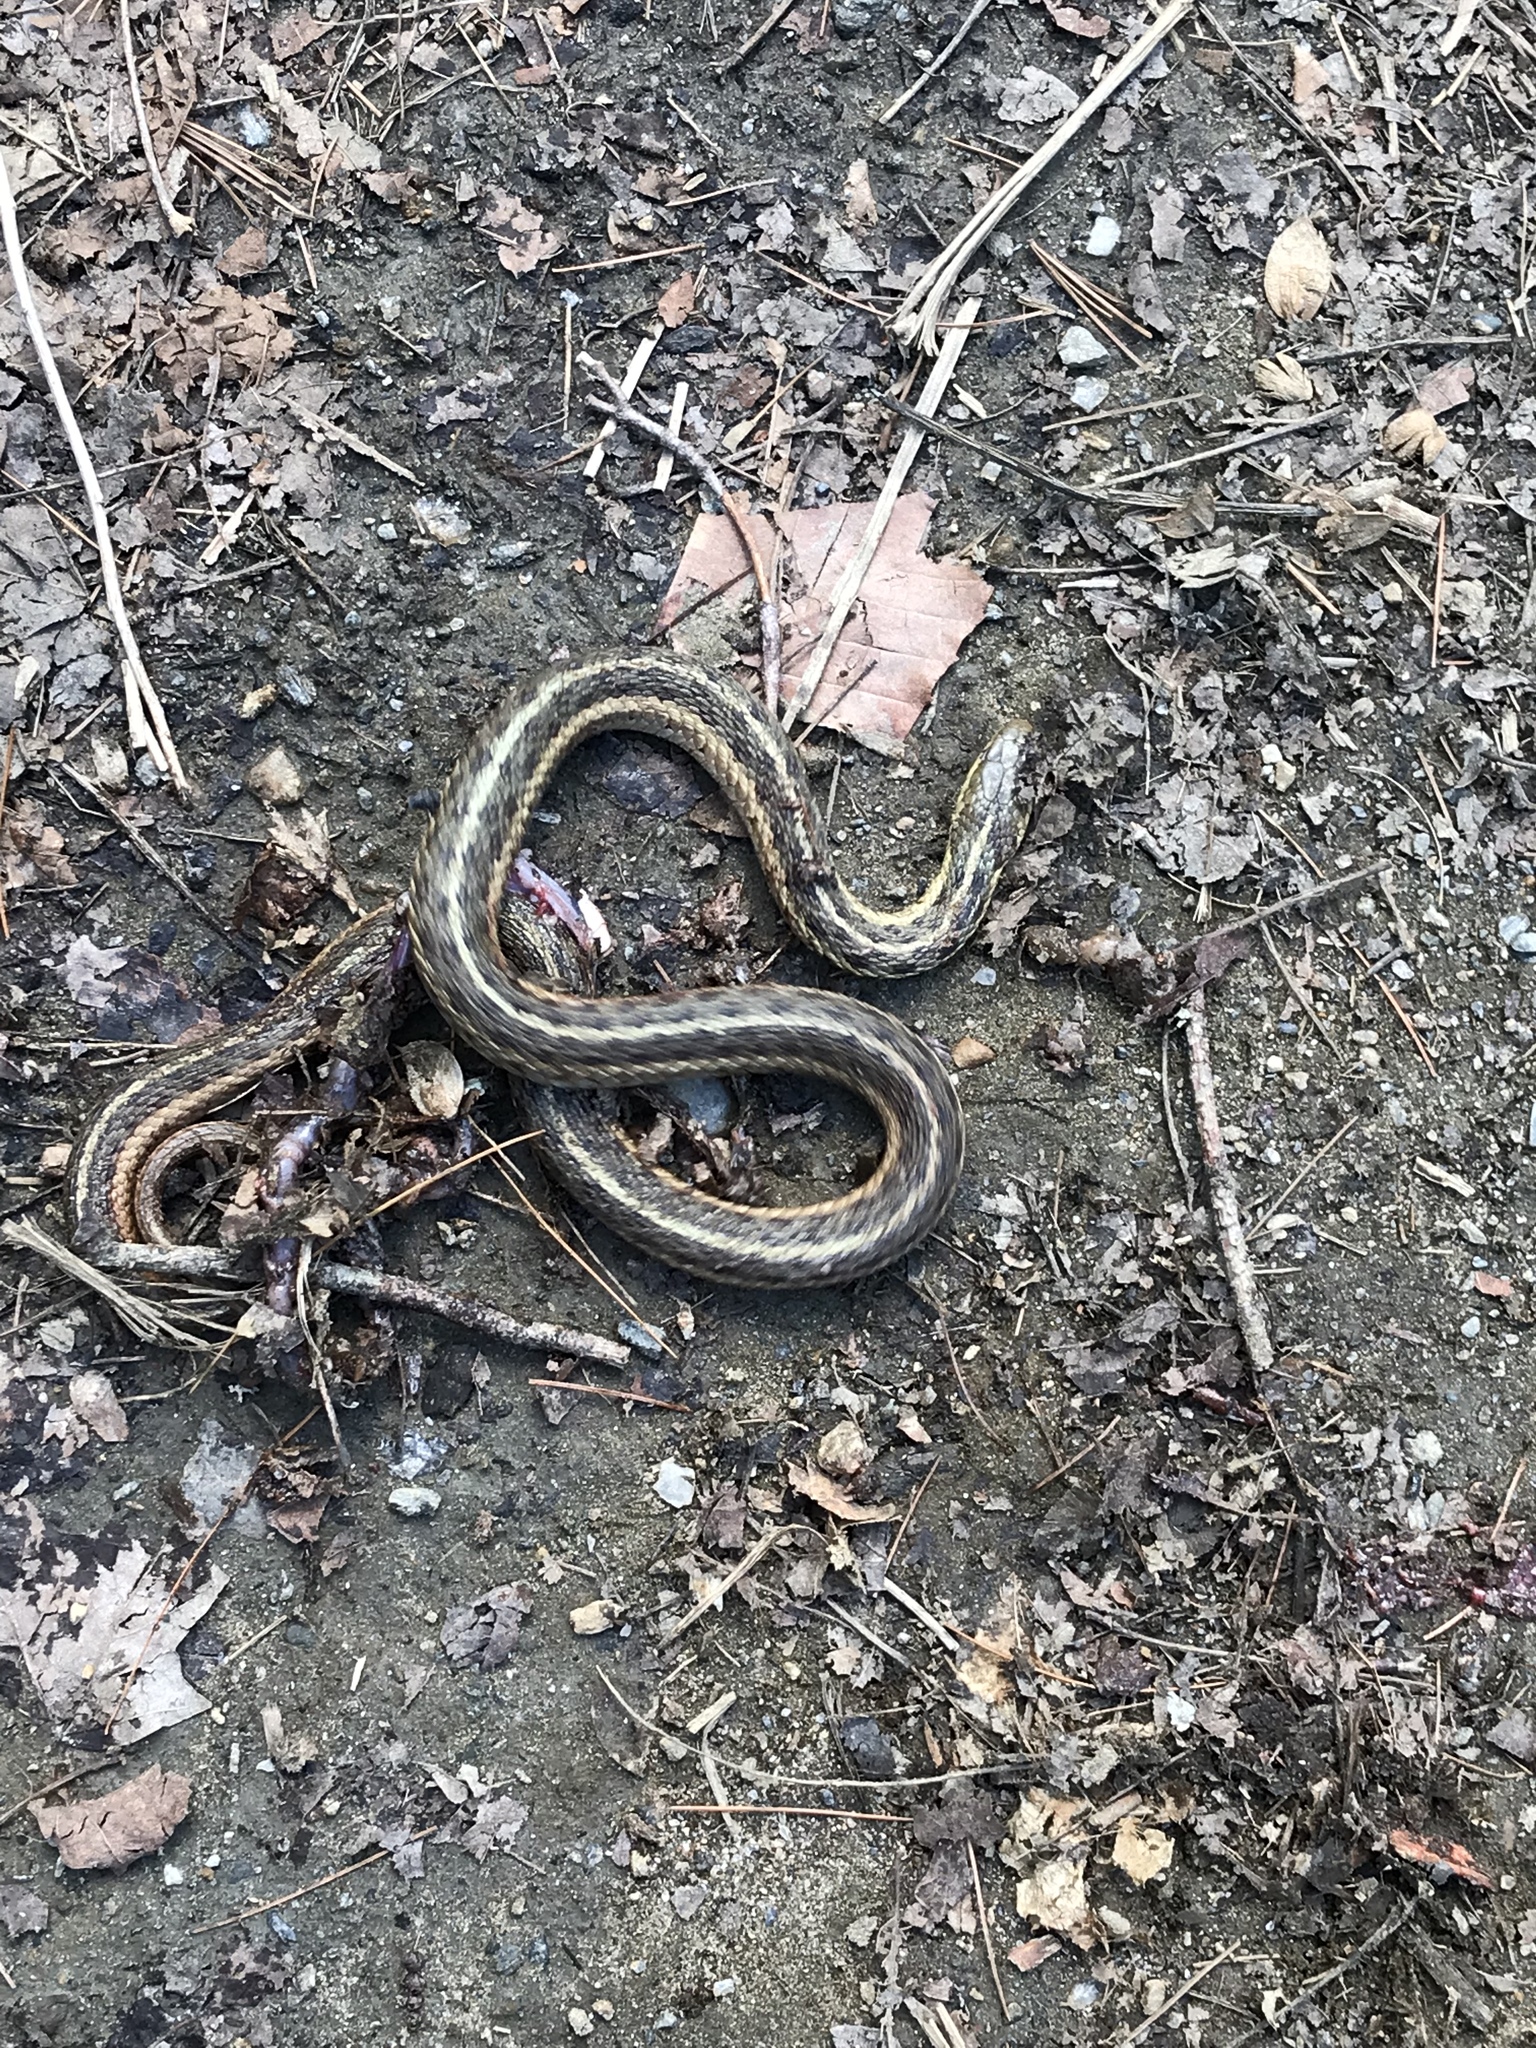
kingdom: Animalia
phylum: Chordata
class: Squamata
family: Colubridae
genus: Thamnophis
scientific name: Thamnophis sirtalis
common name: Common garter snake
